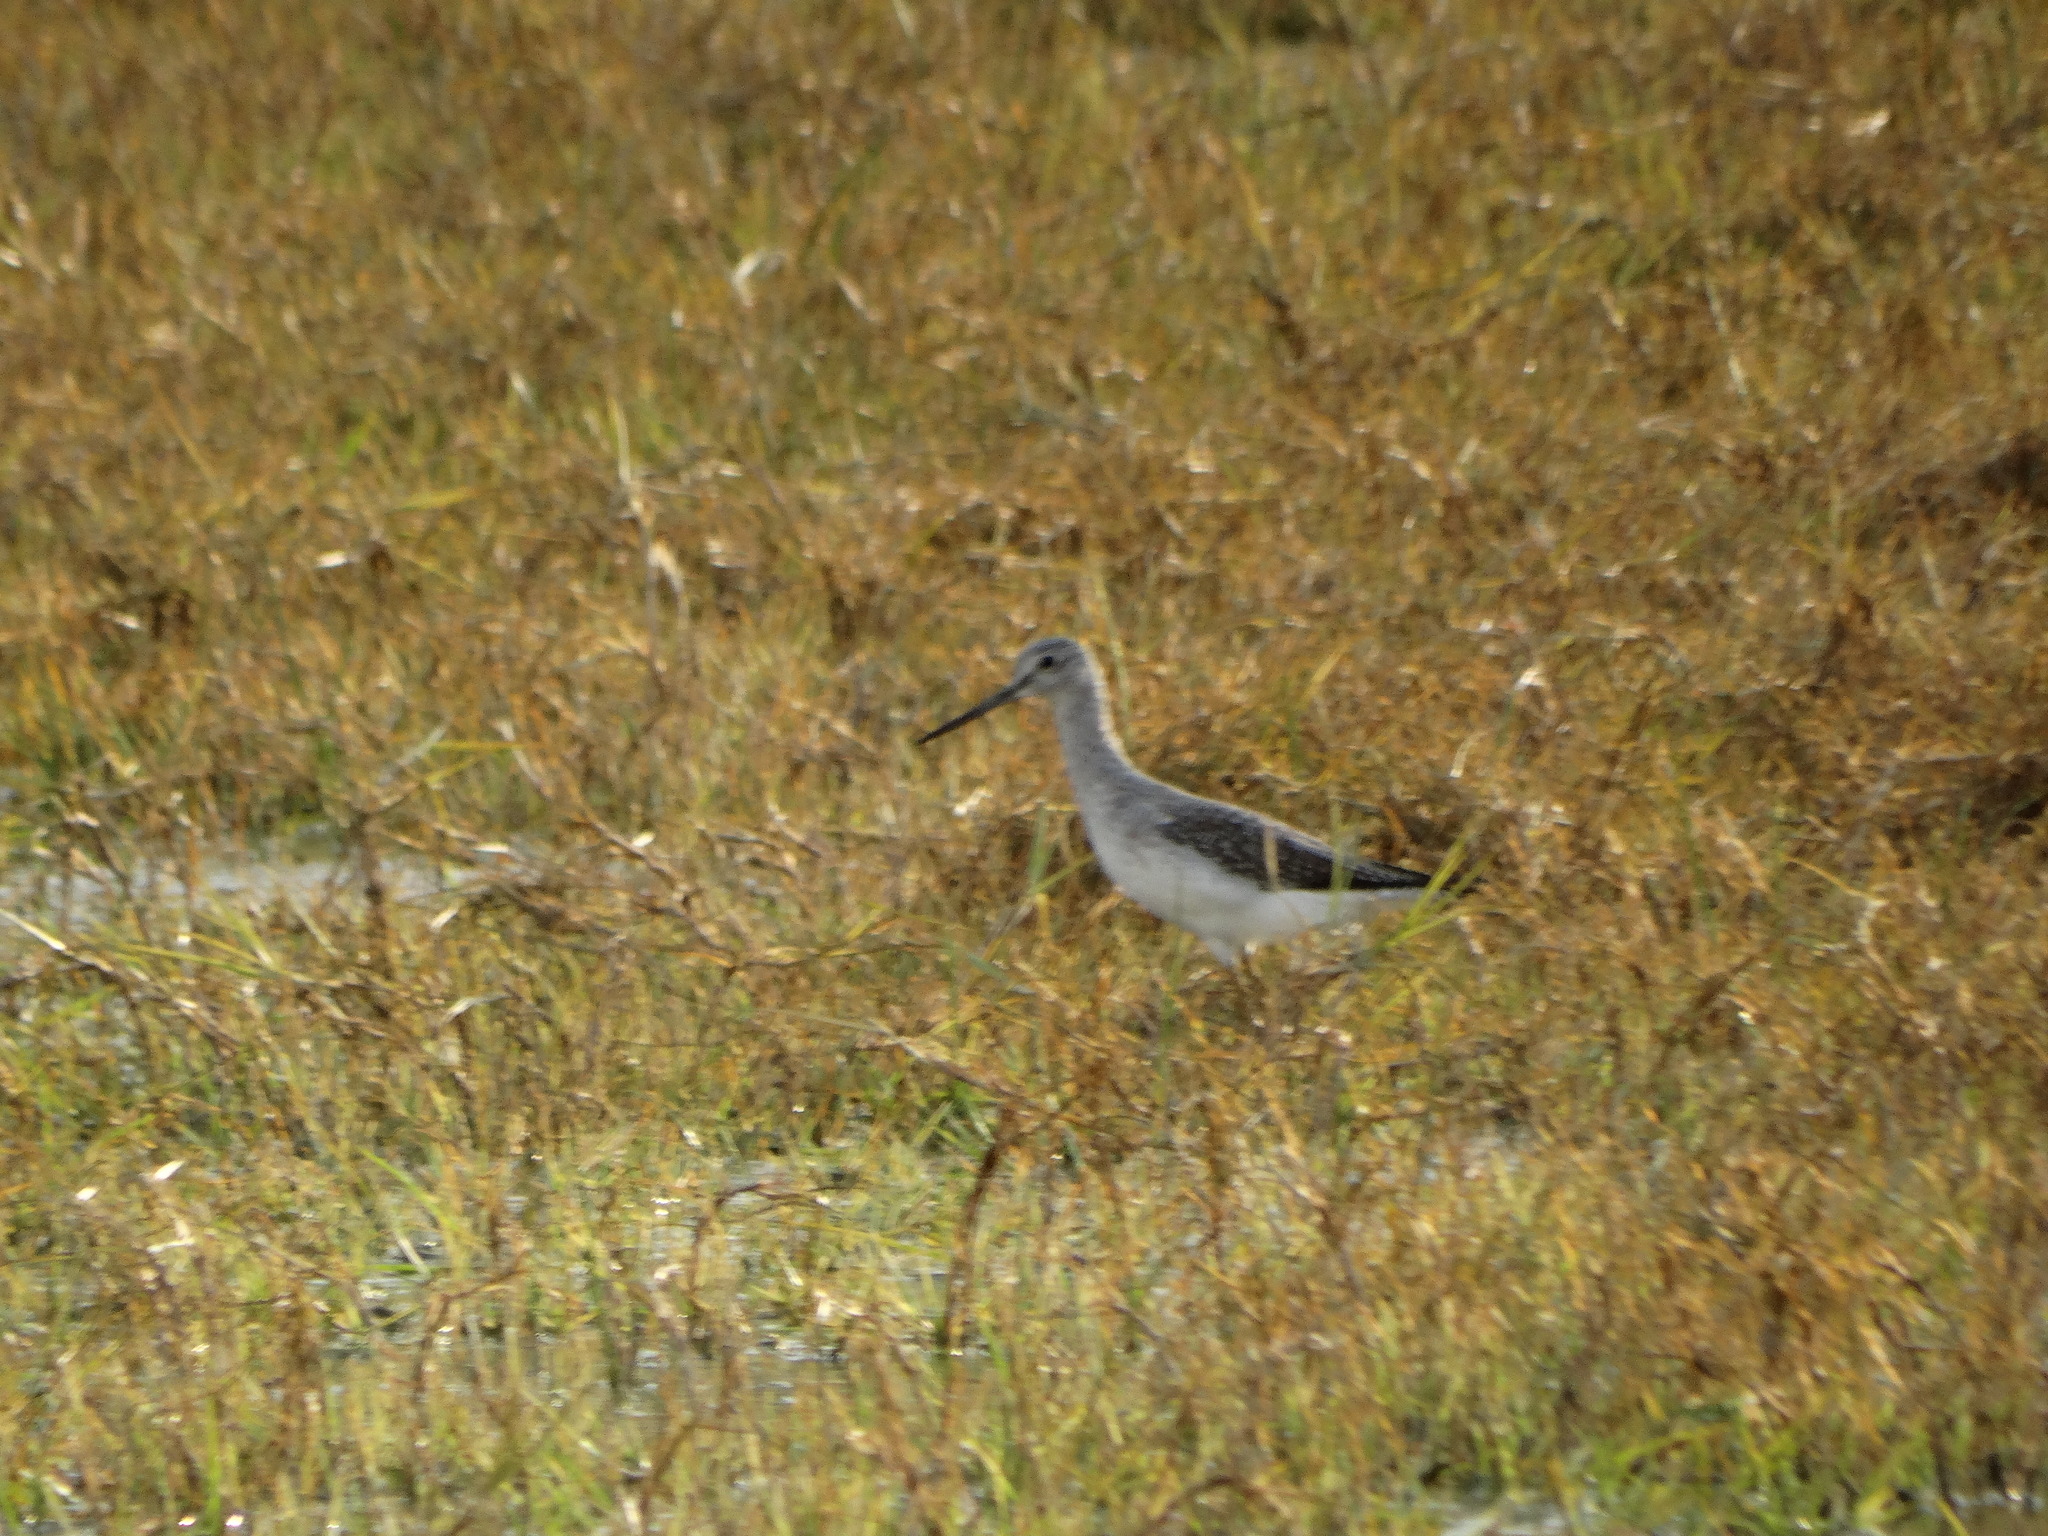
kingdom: Animalia
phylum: Chordata
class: Aves
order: Charadriiformes
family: Scolopacidae
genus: Tringa
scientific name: Tringa melanoleuca
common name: Greater yellowlegs
